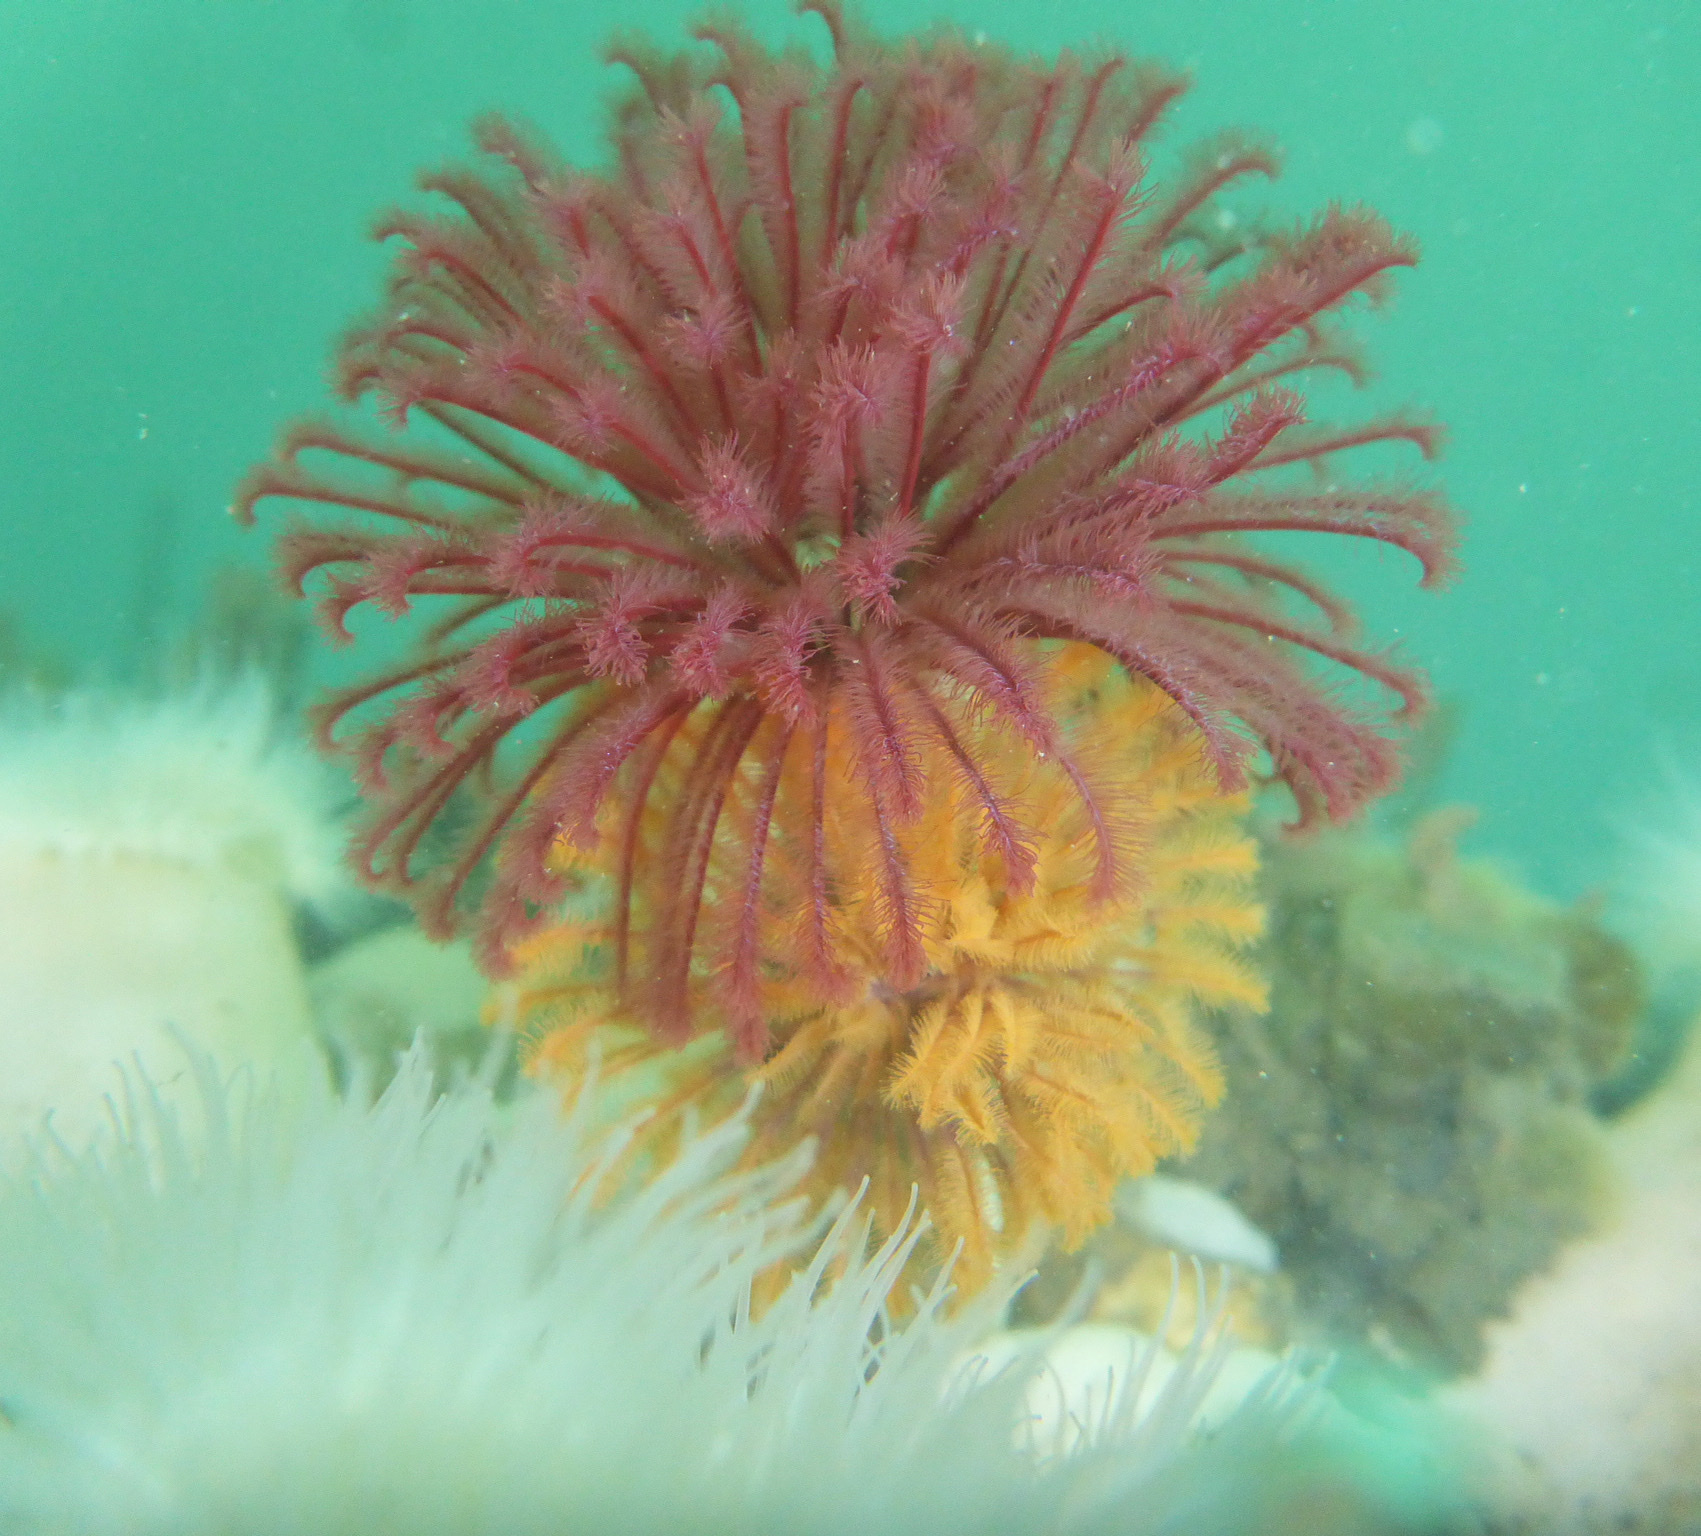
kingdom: Animalia
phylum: Annelida
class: Polychaeta
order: Sabellida
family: Sabellidae
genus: Eudistylia
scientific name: Eudistylia polymorpha
